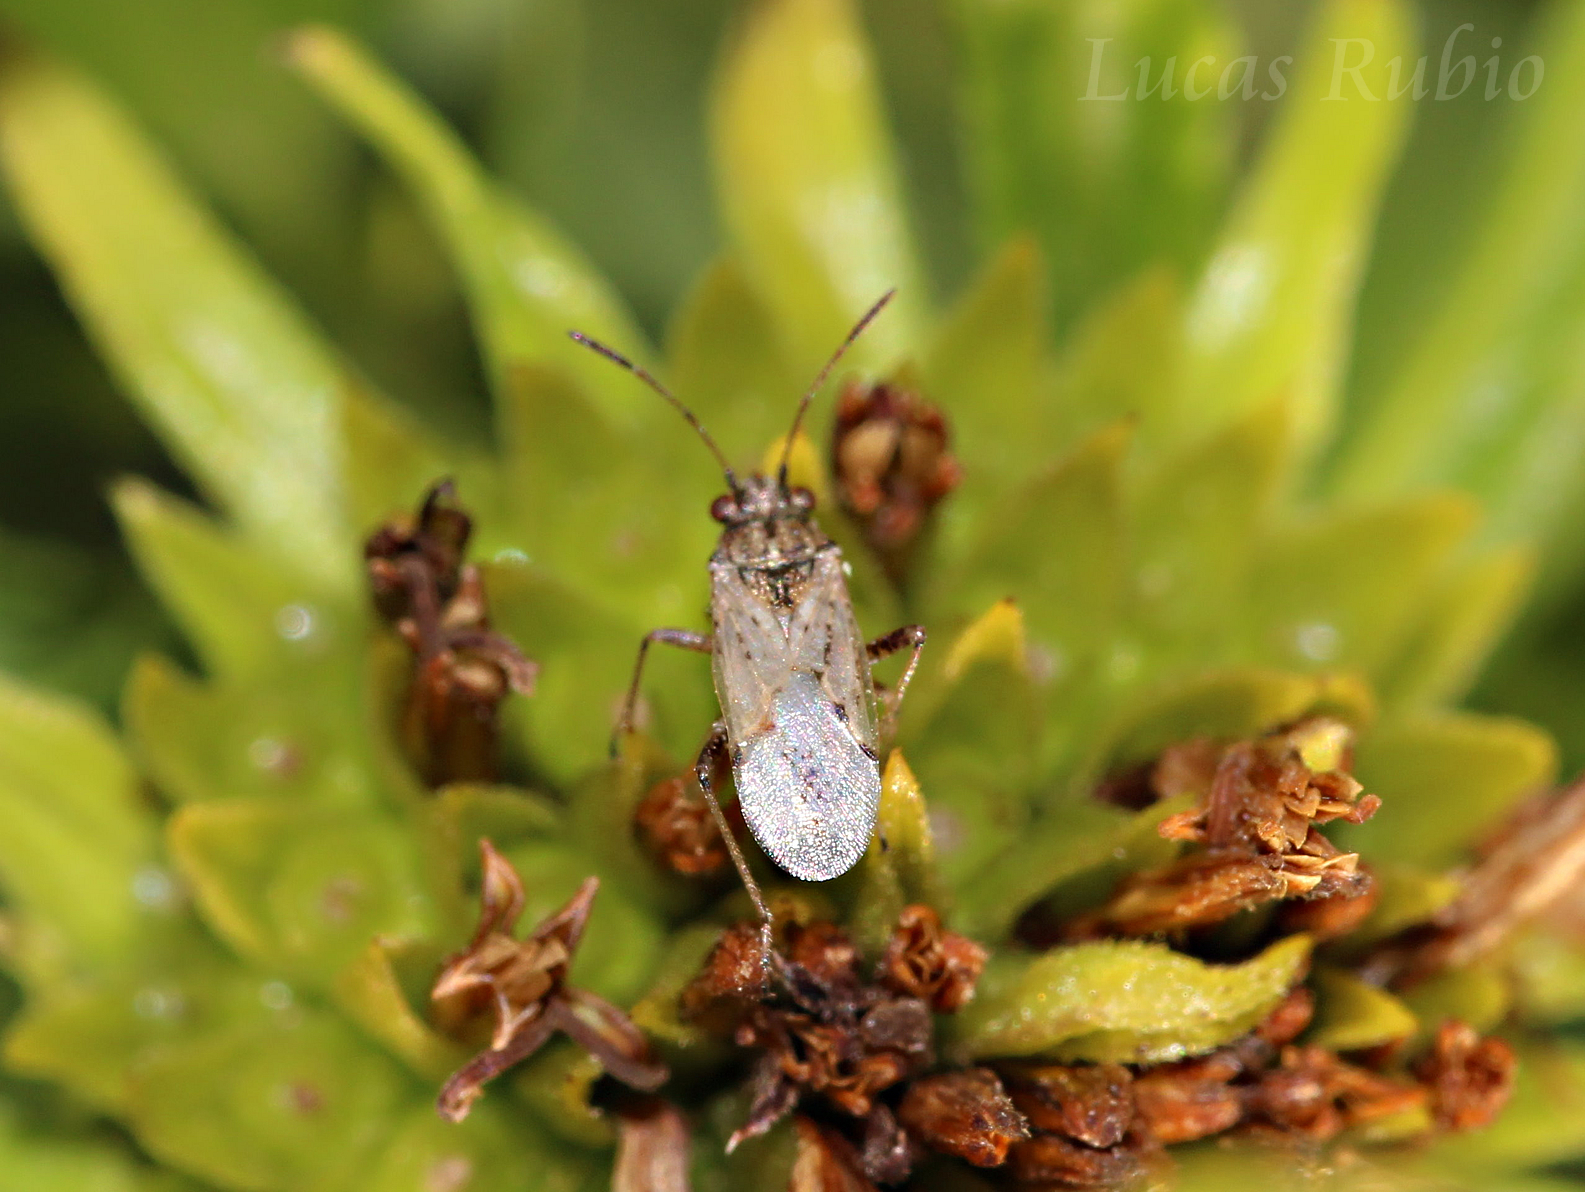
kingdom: Animalia
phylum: Arthropoda
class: Insecta
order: Hemiptera
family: Lygaeidae
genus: Nysius
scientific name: Nysius simulans
